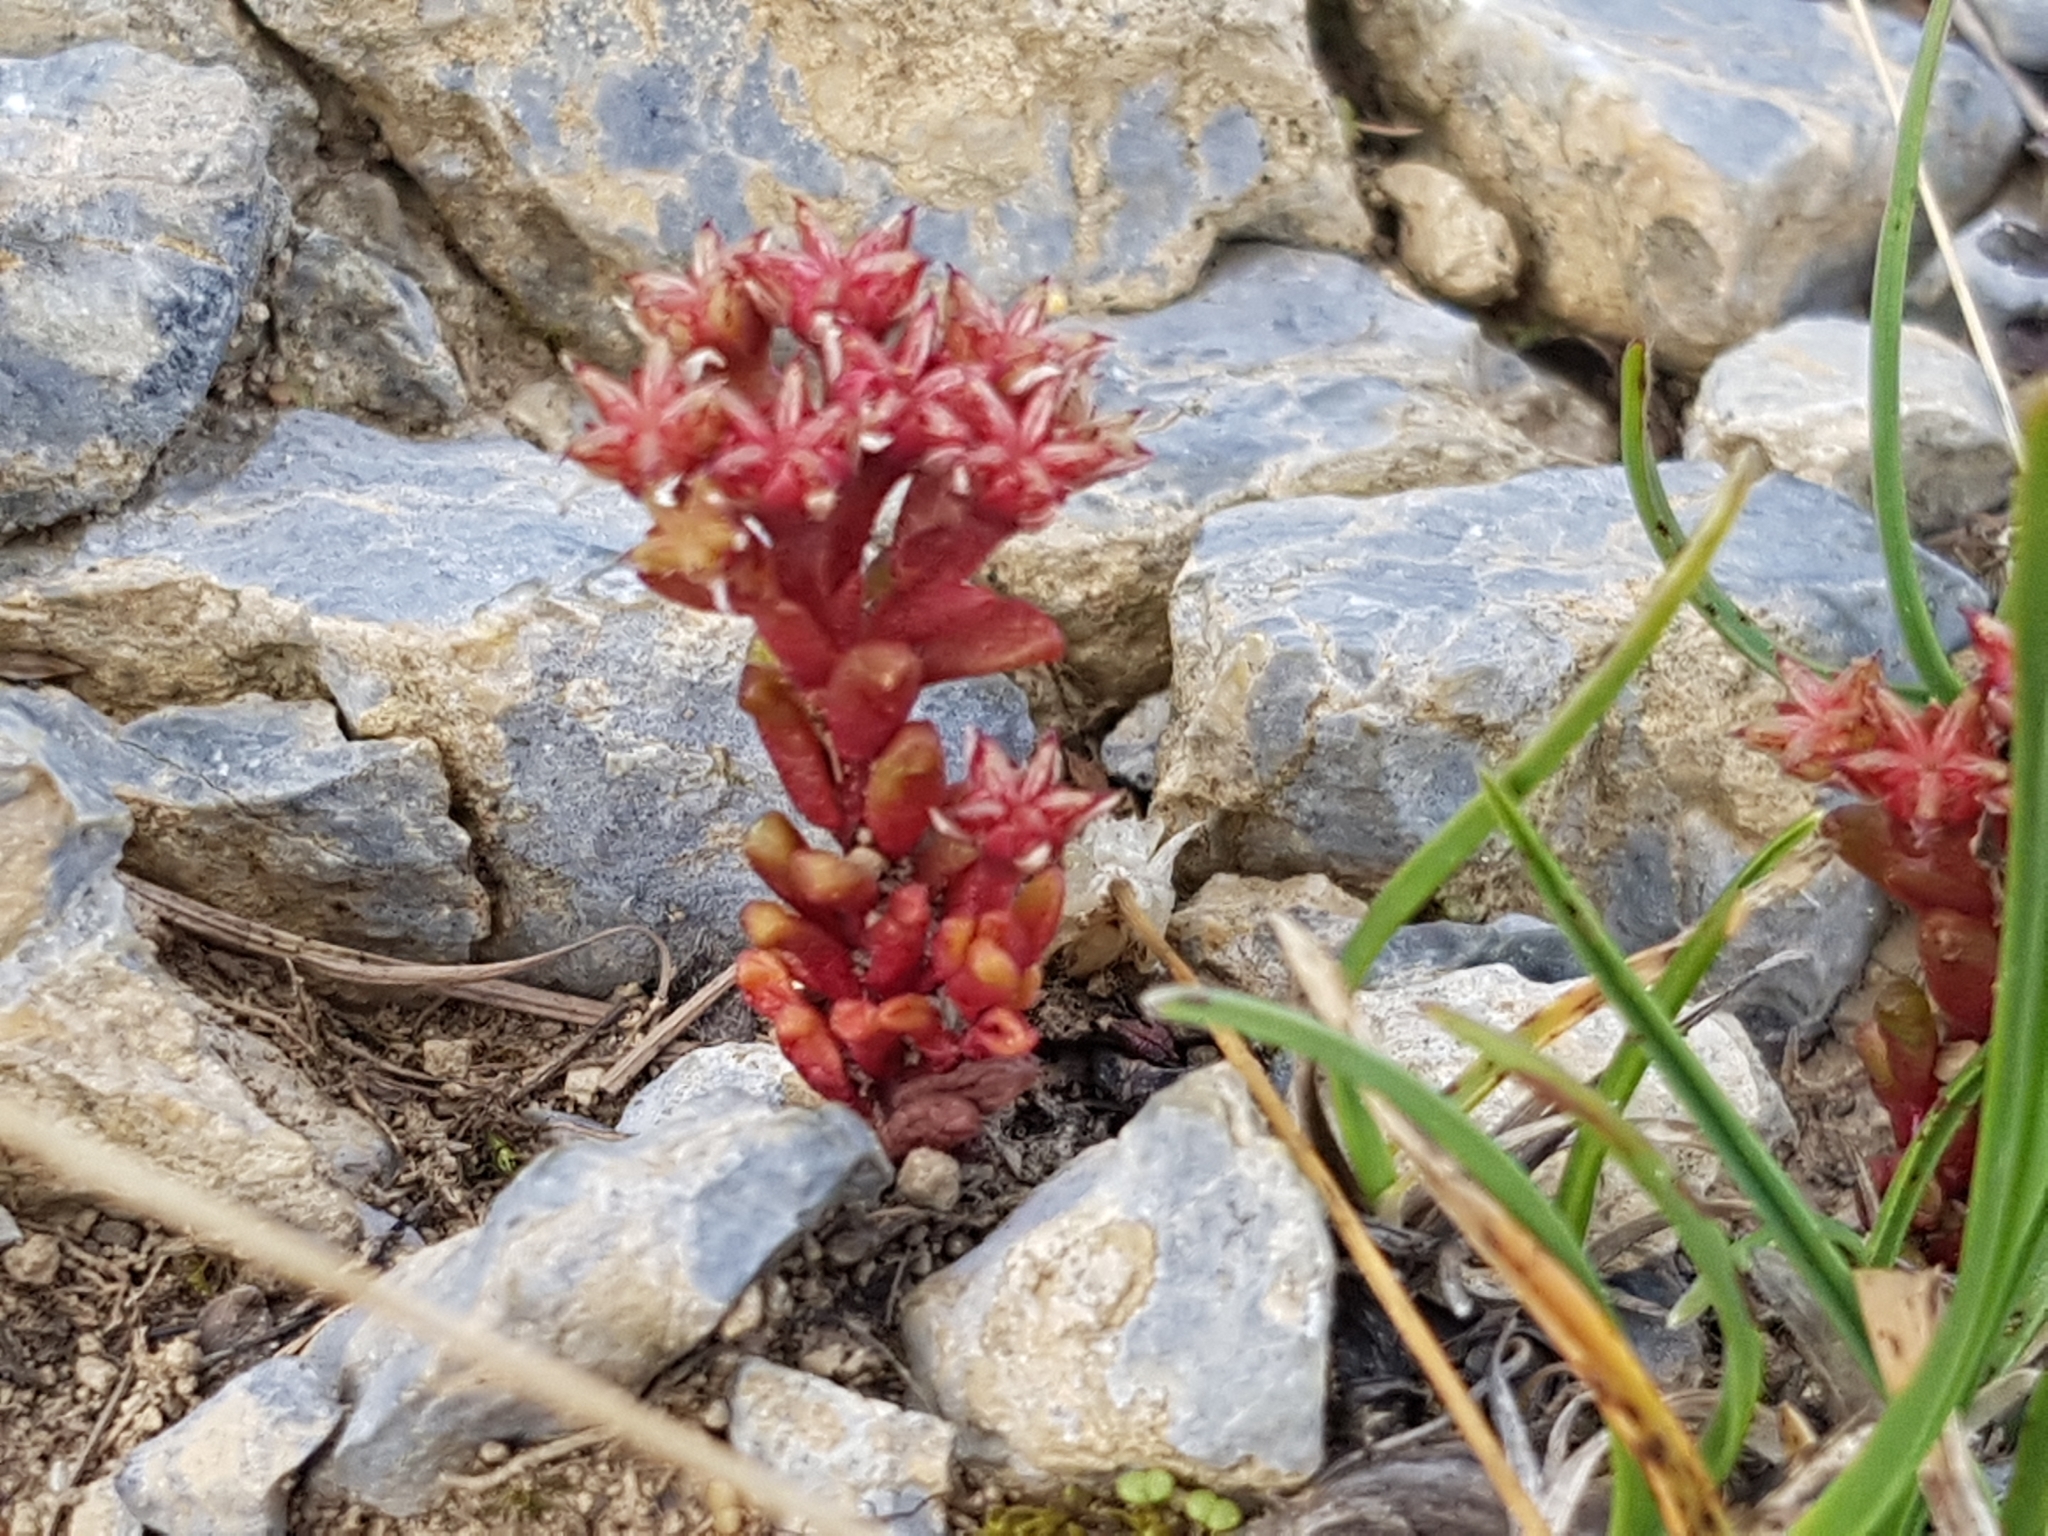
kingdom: Plantae
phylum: Tracheophyta
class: Magnoliopsida
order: Saxifragales
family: Crassulaceae
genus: Sedum
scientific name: Sedum atratum
